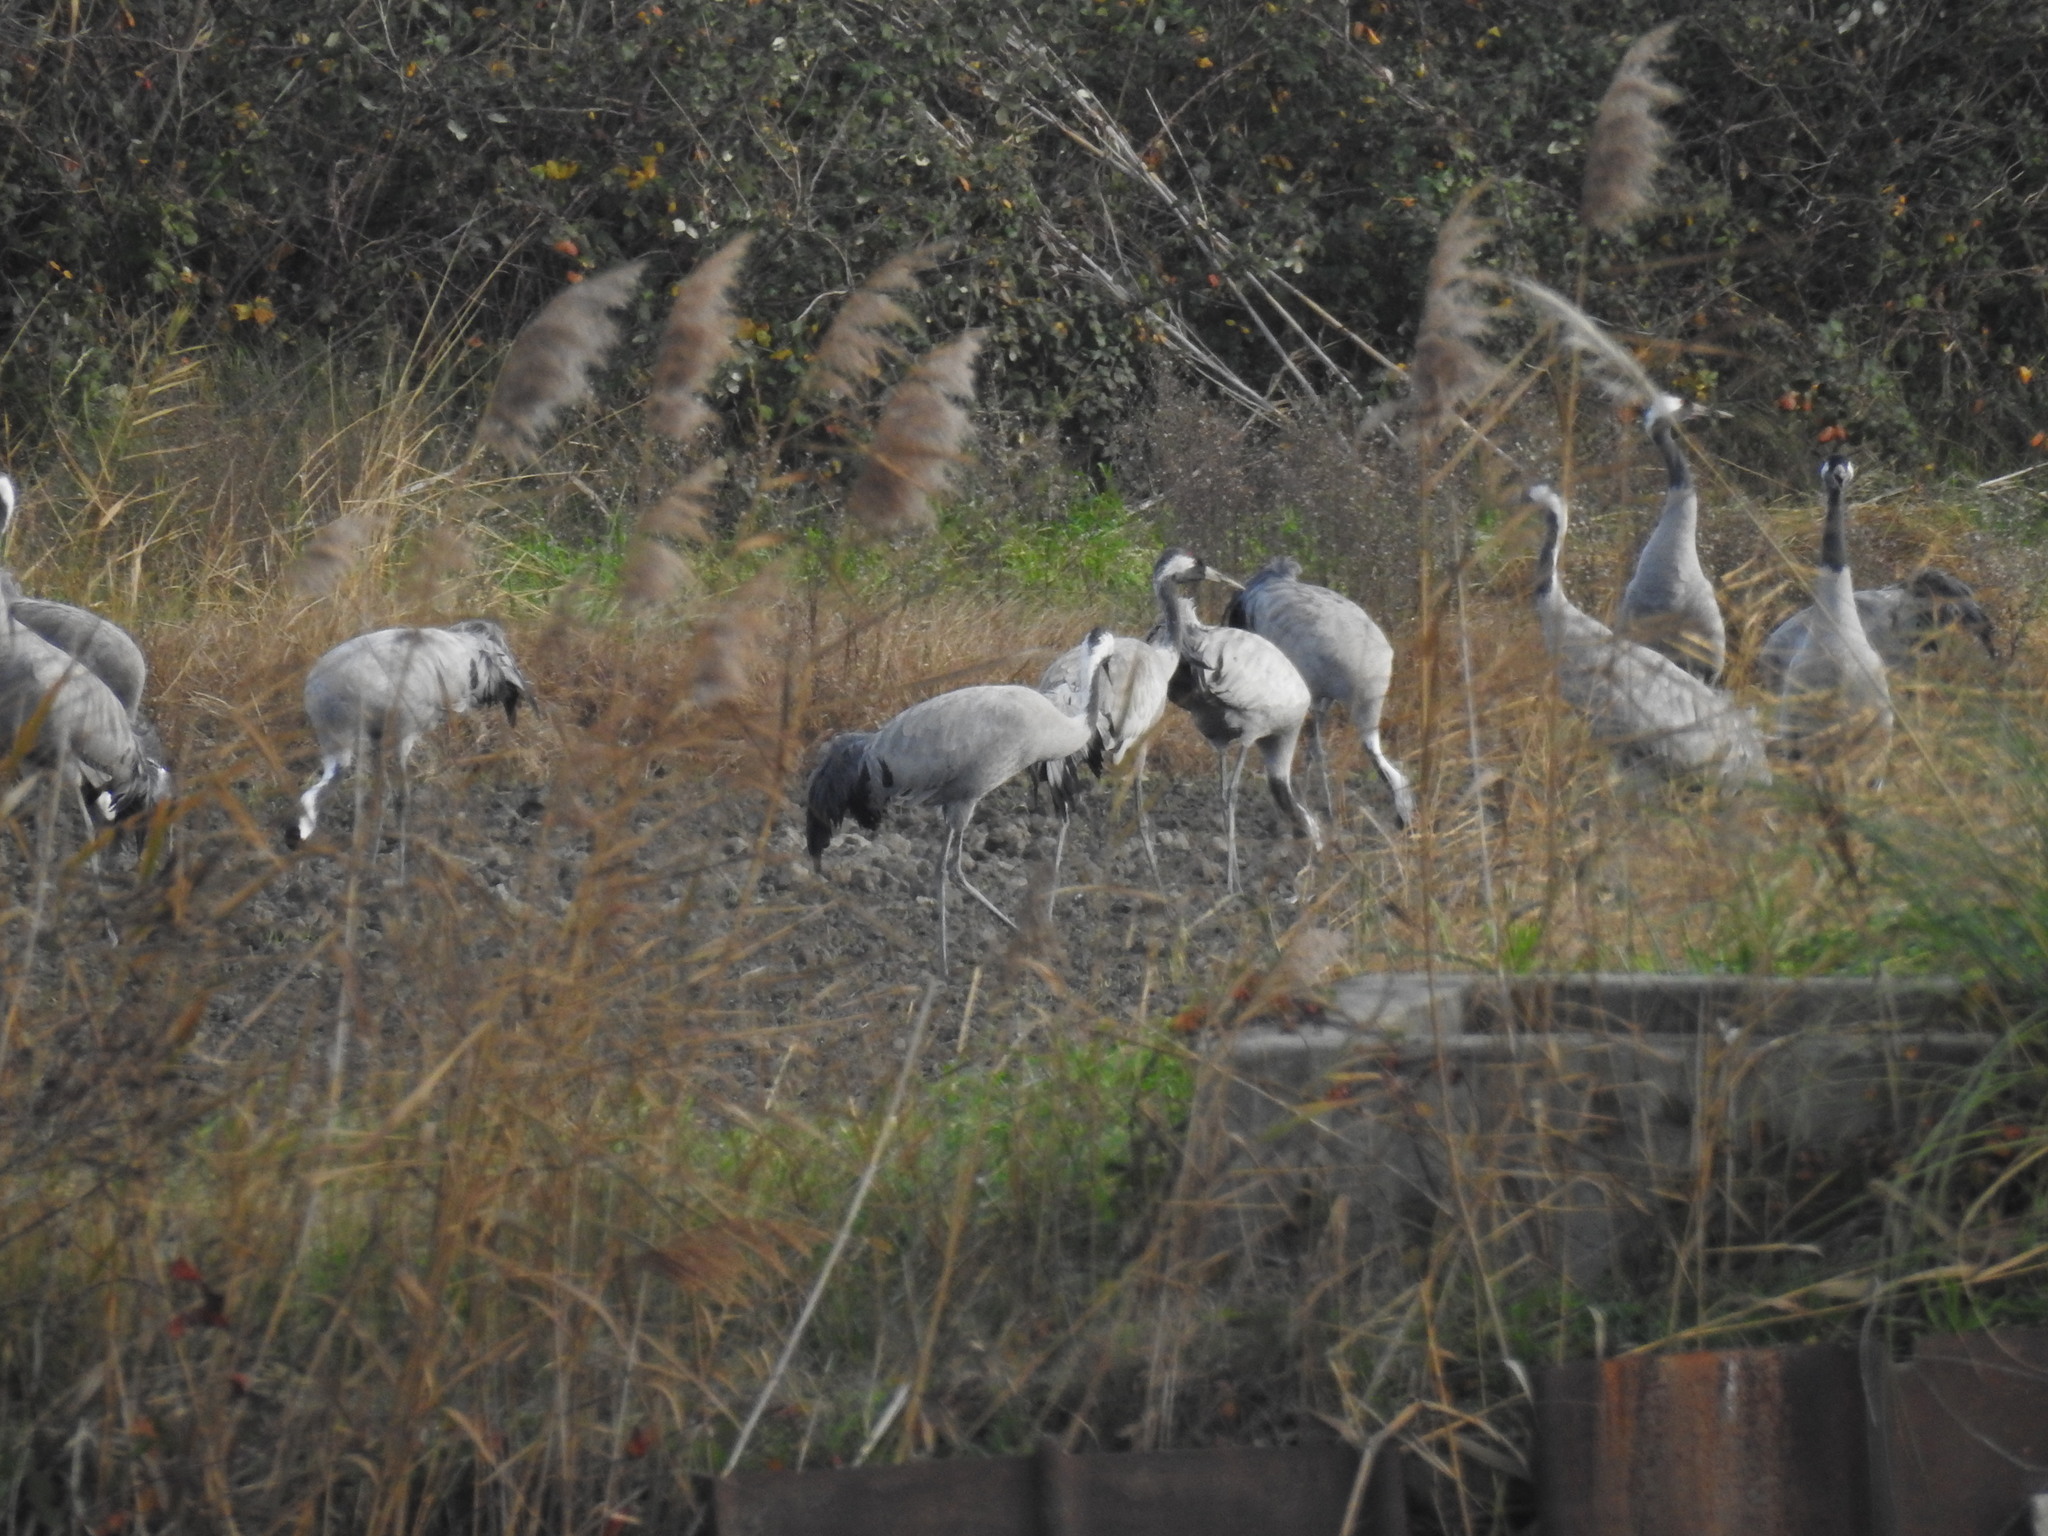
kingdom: Animalia
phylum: Chordata
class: Aves
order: Gruiformes
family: Gruidae
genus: Grus
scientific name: Grus grus
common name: Common crane
